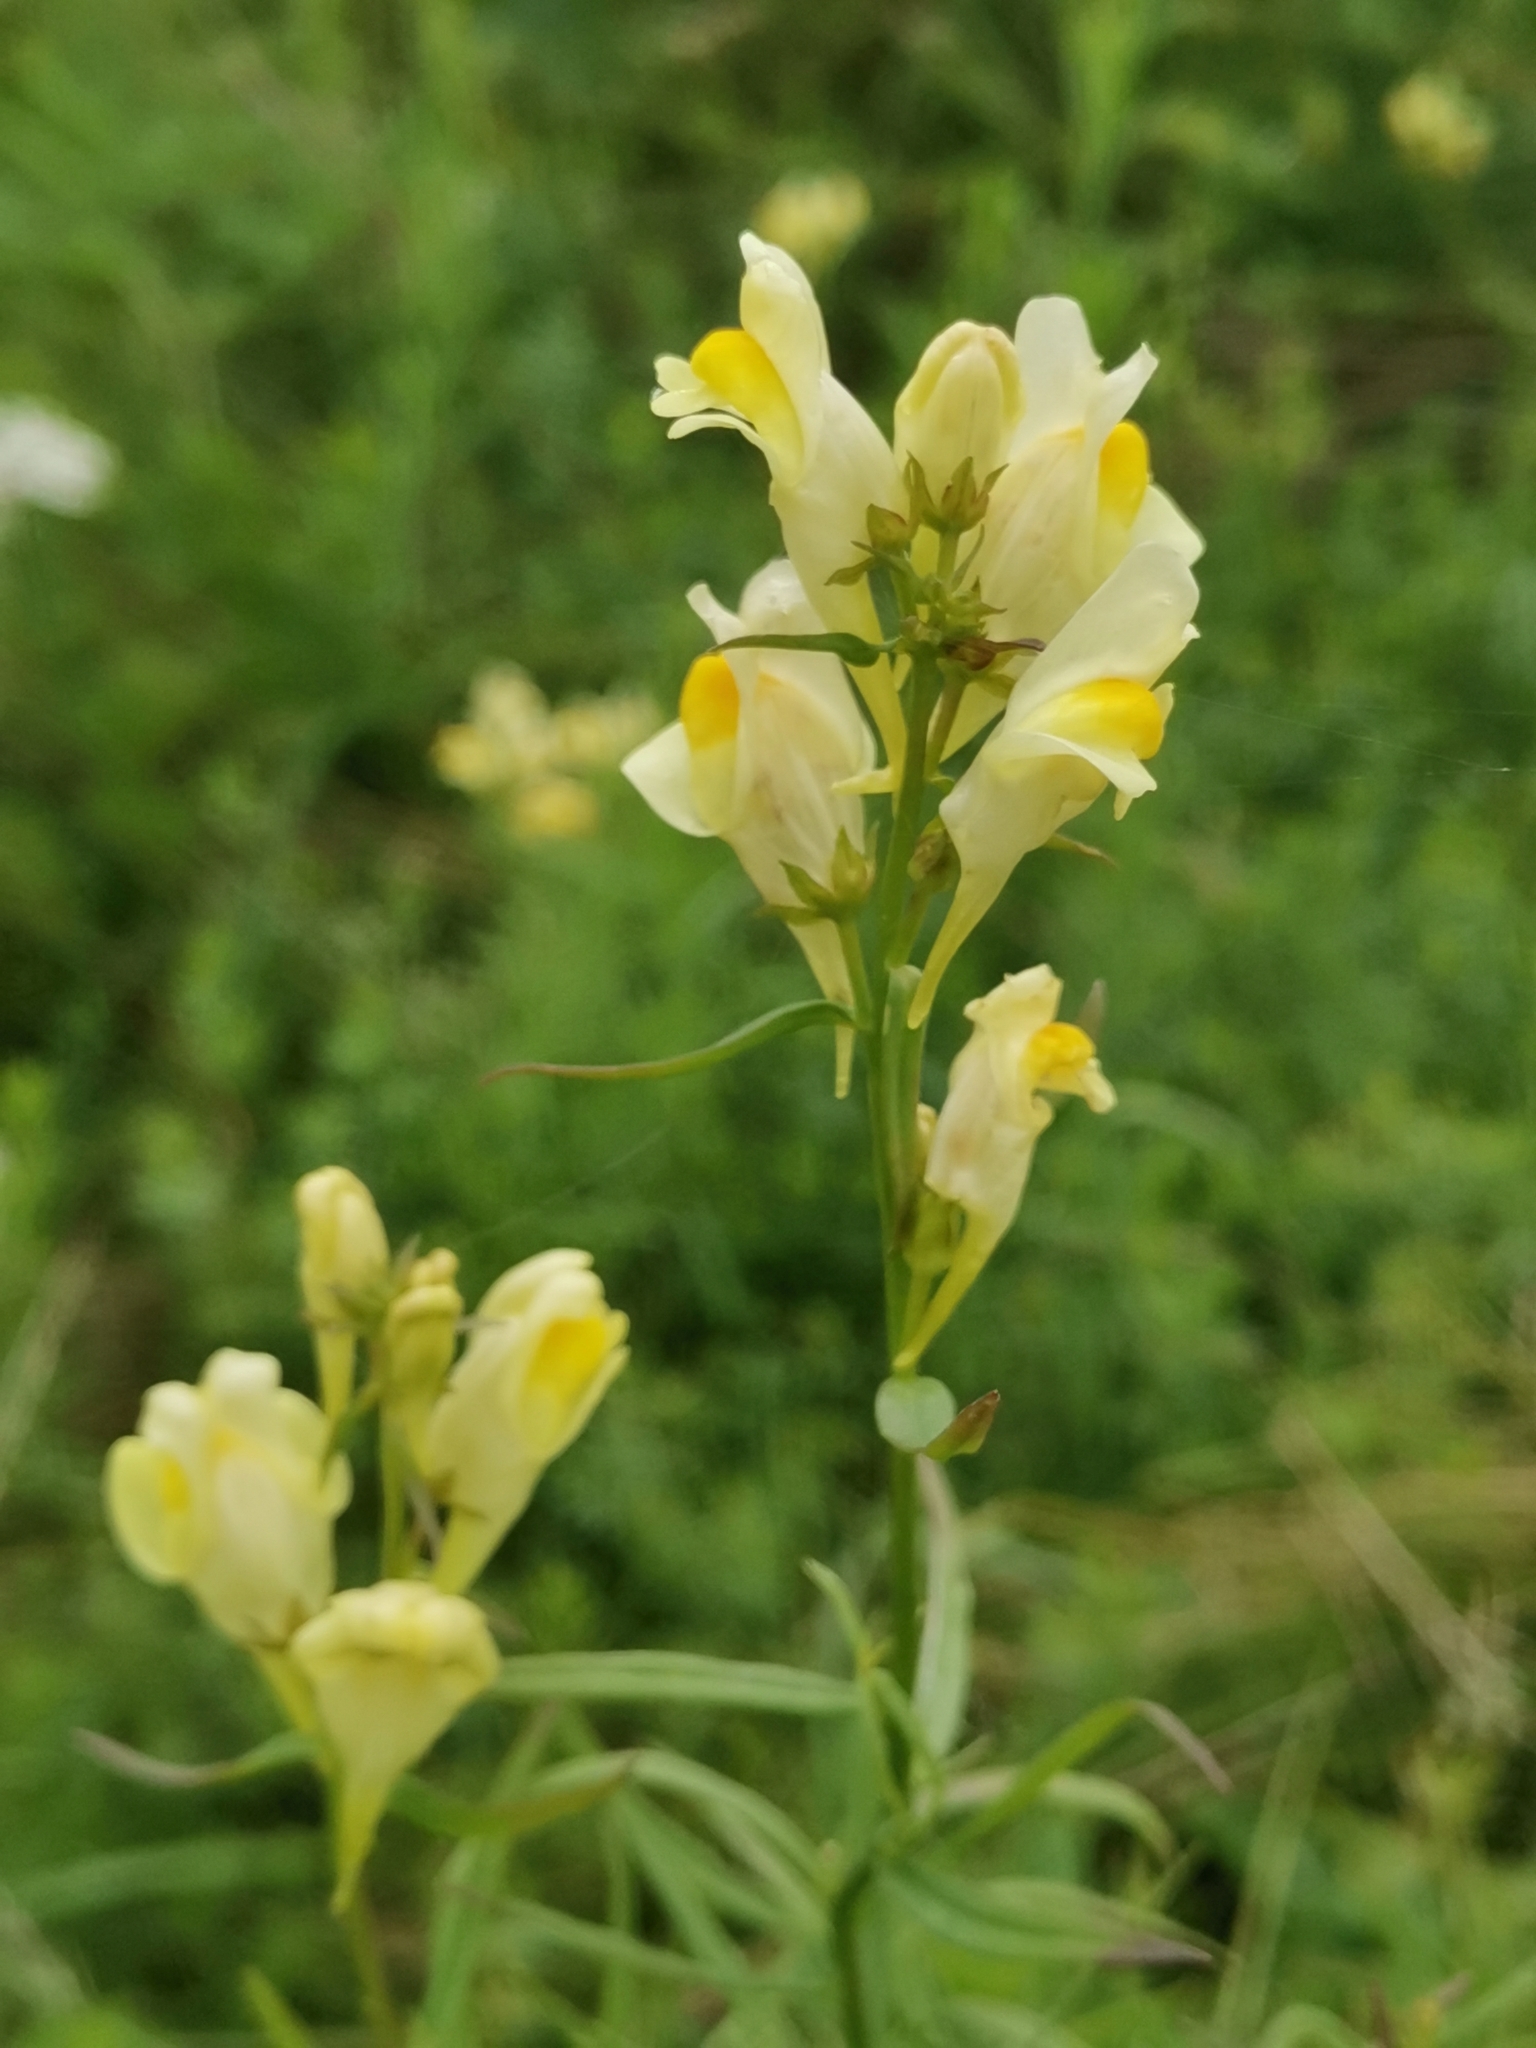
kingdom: Plantae
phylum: Tracheophyta
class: Magnoliopsida
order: Lamiales
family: Plantaginaceae
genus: Linaria
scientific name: Linaria vulgaris
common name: Butter and eggs
